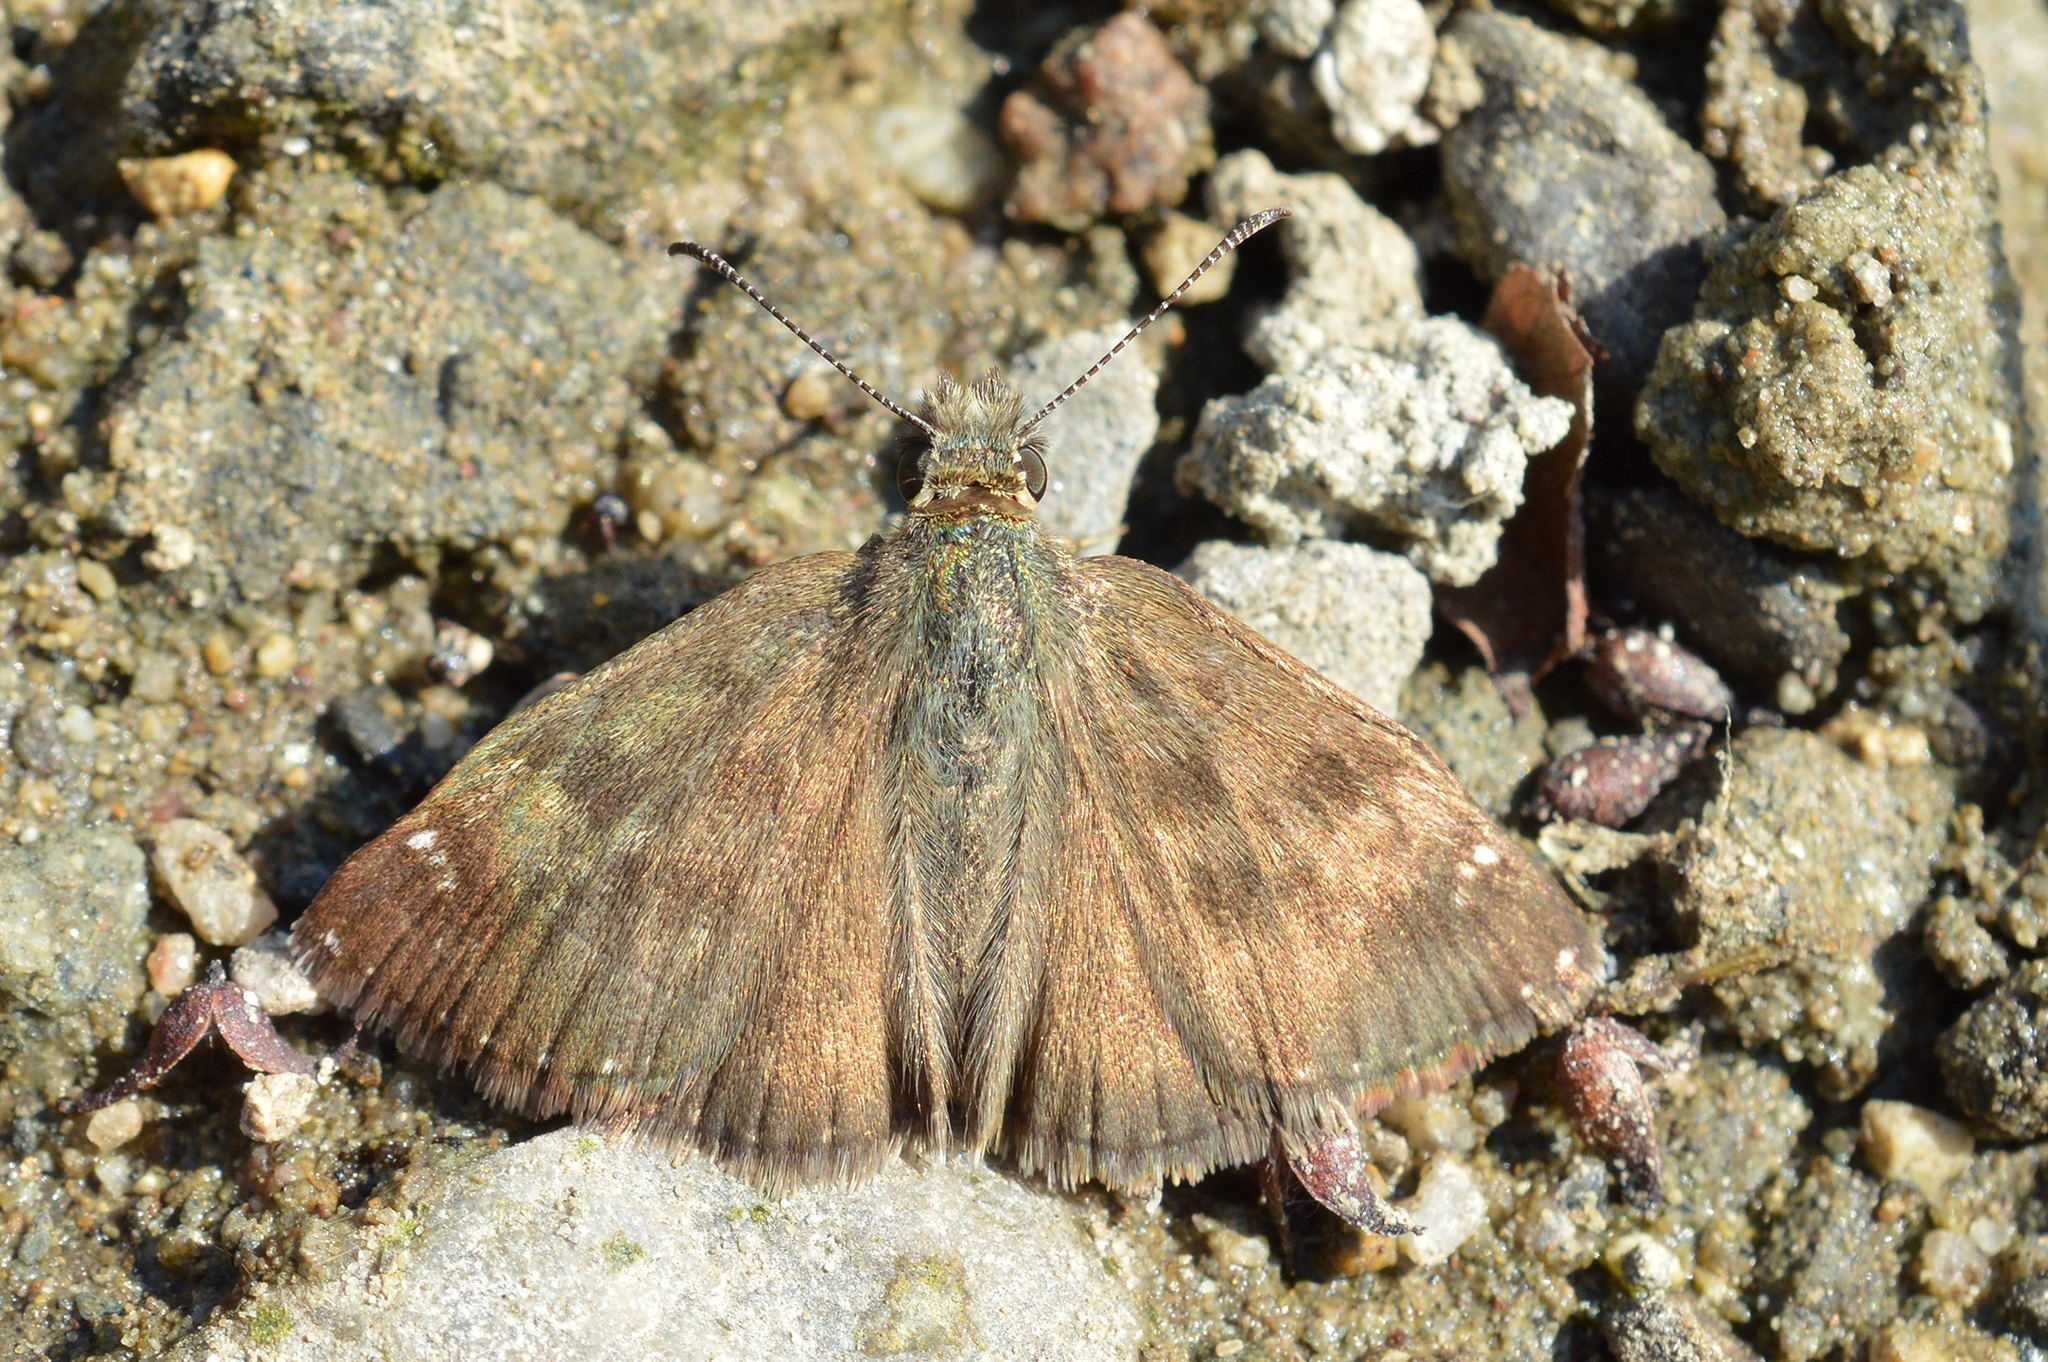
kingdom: Animalia
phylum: Arthropoda
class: Insecta
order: Lepidoptera
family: Hesperiidae
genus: Erynnis
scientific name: Erynnis tages
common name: Dingy skipper
